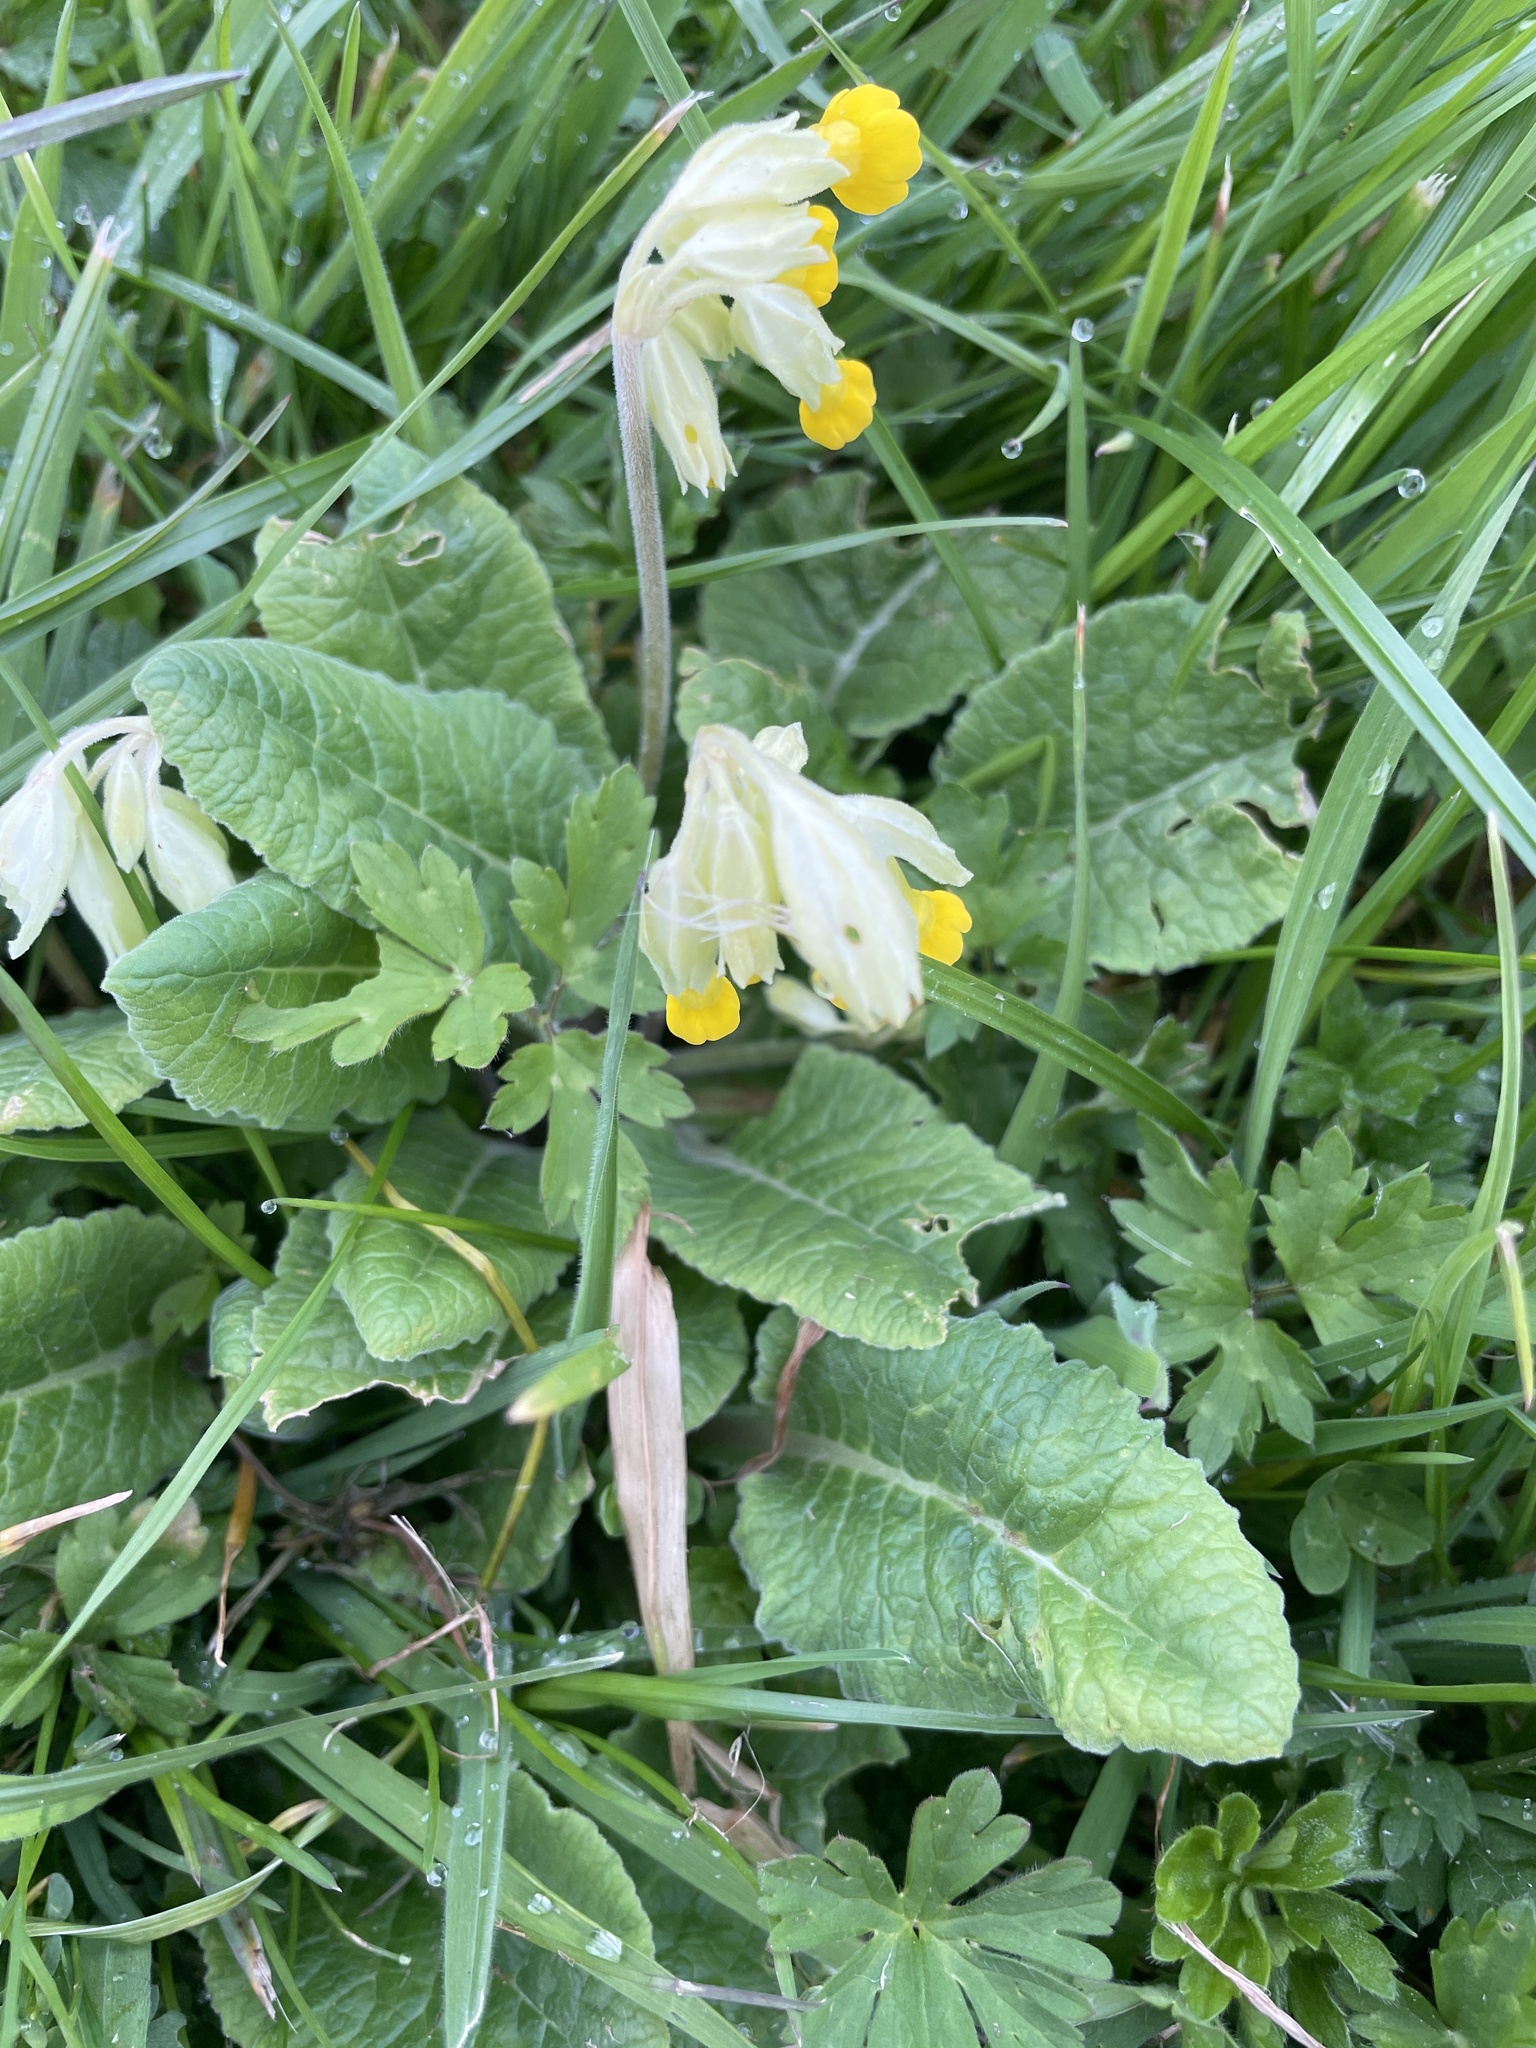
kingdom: Plantae
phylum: Tracheophyta
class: Magnoliopsida
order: Ericales
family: Primulaceae
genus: Primula
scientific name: Primula veris
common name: Cowslip
